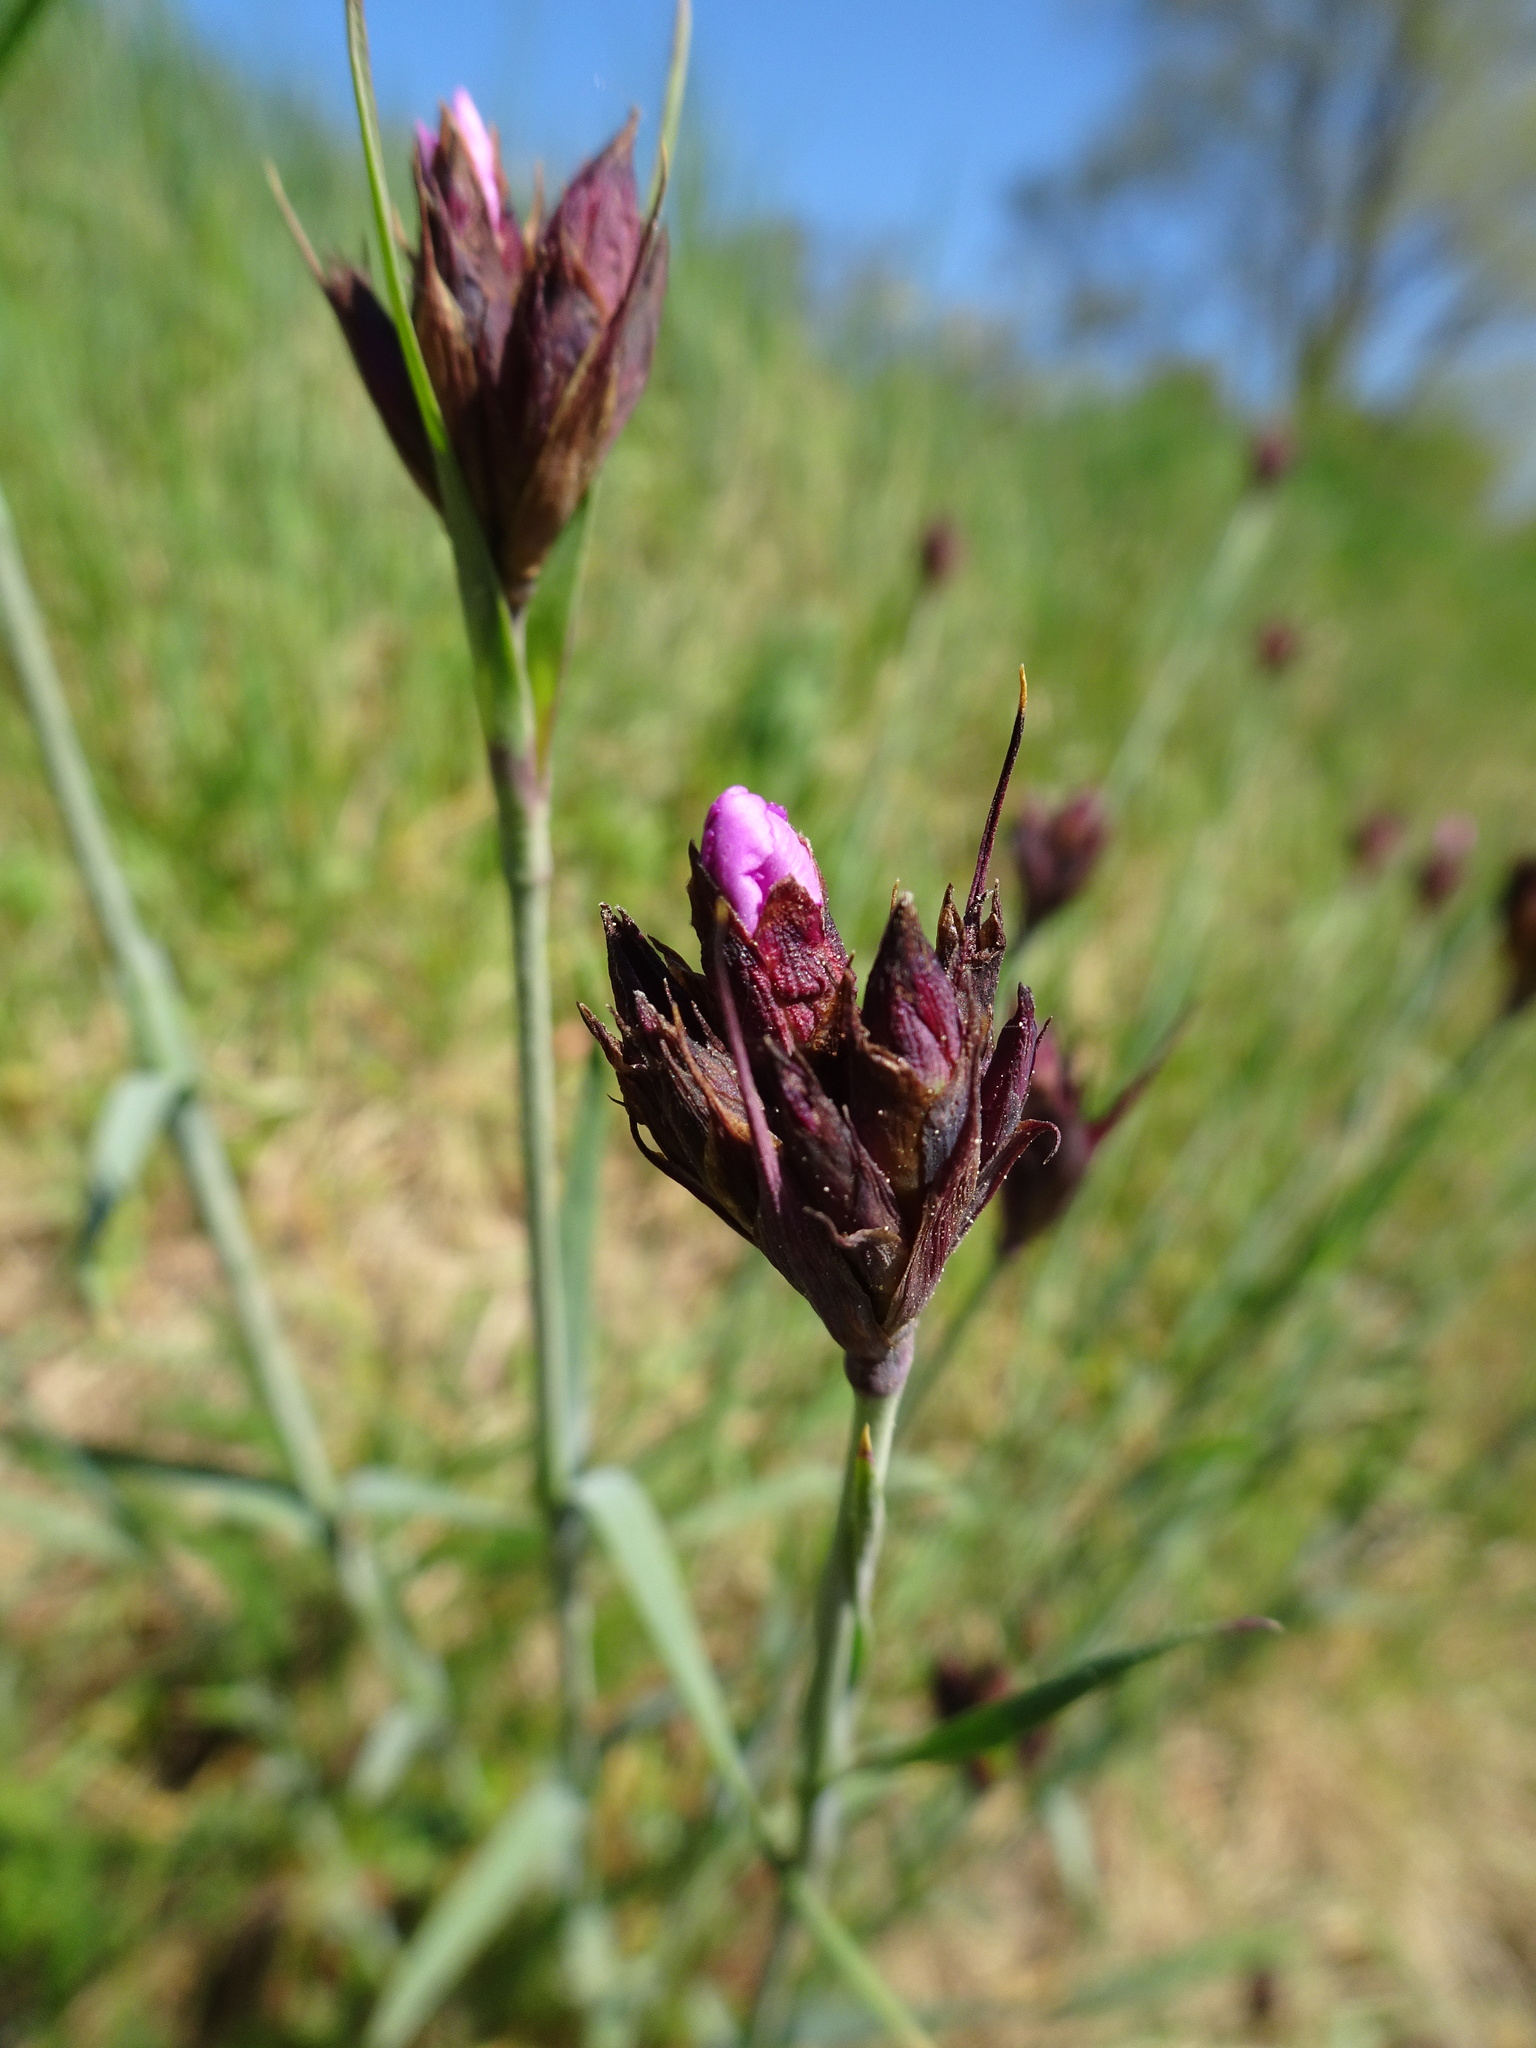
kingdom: Plantae
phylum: Tracheophyta
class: Magnoliopsida
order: Caryophyllales
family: Caryophyllaceae
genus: Dianthus
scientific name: Dianthus carthusianorum
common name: Carthusian pink
